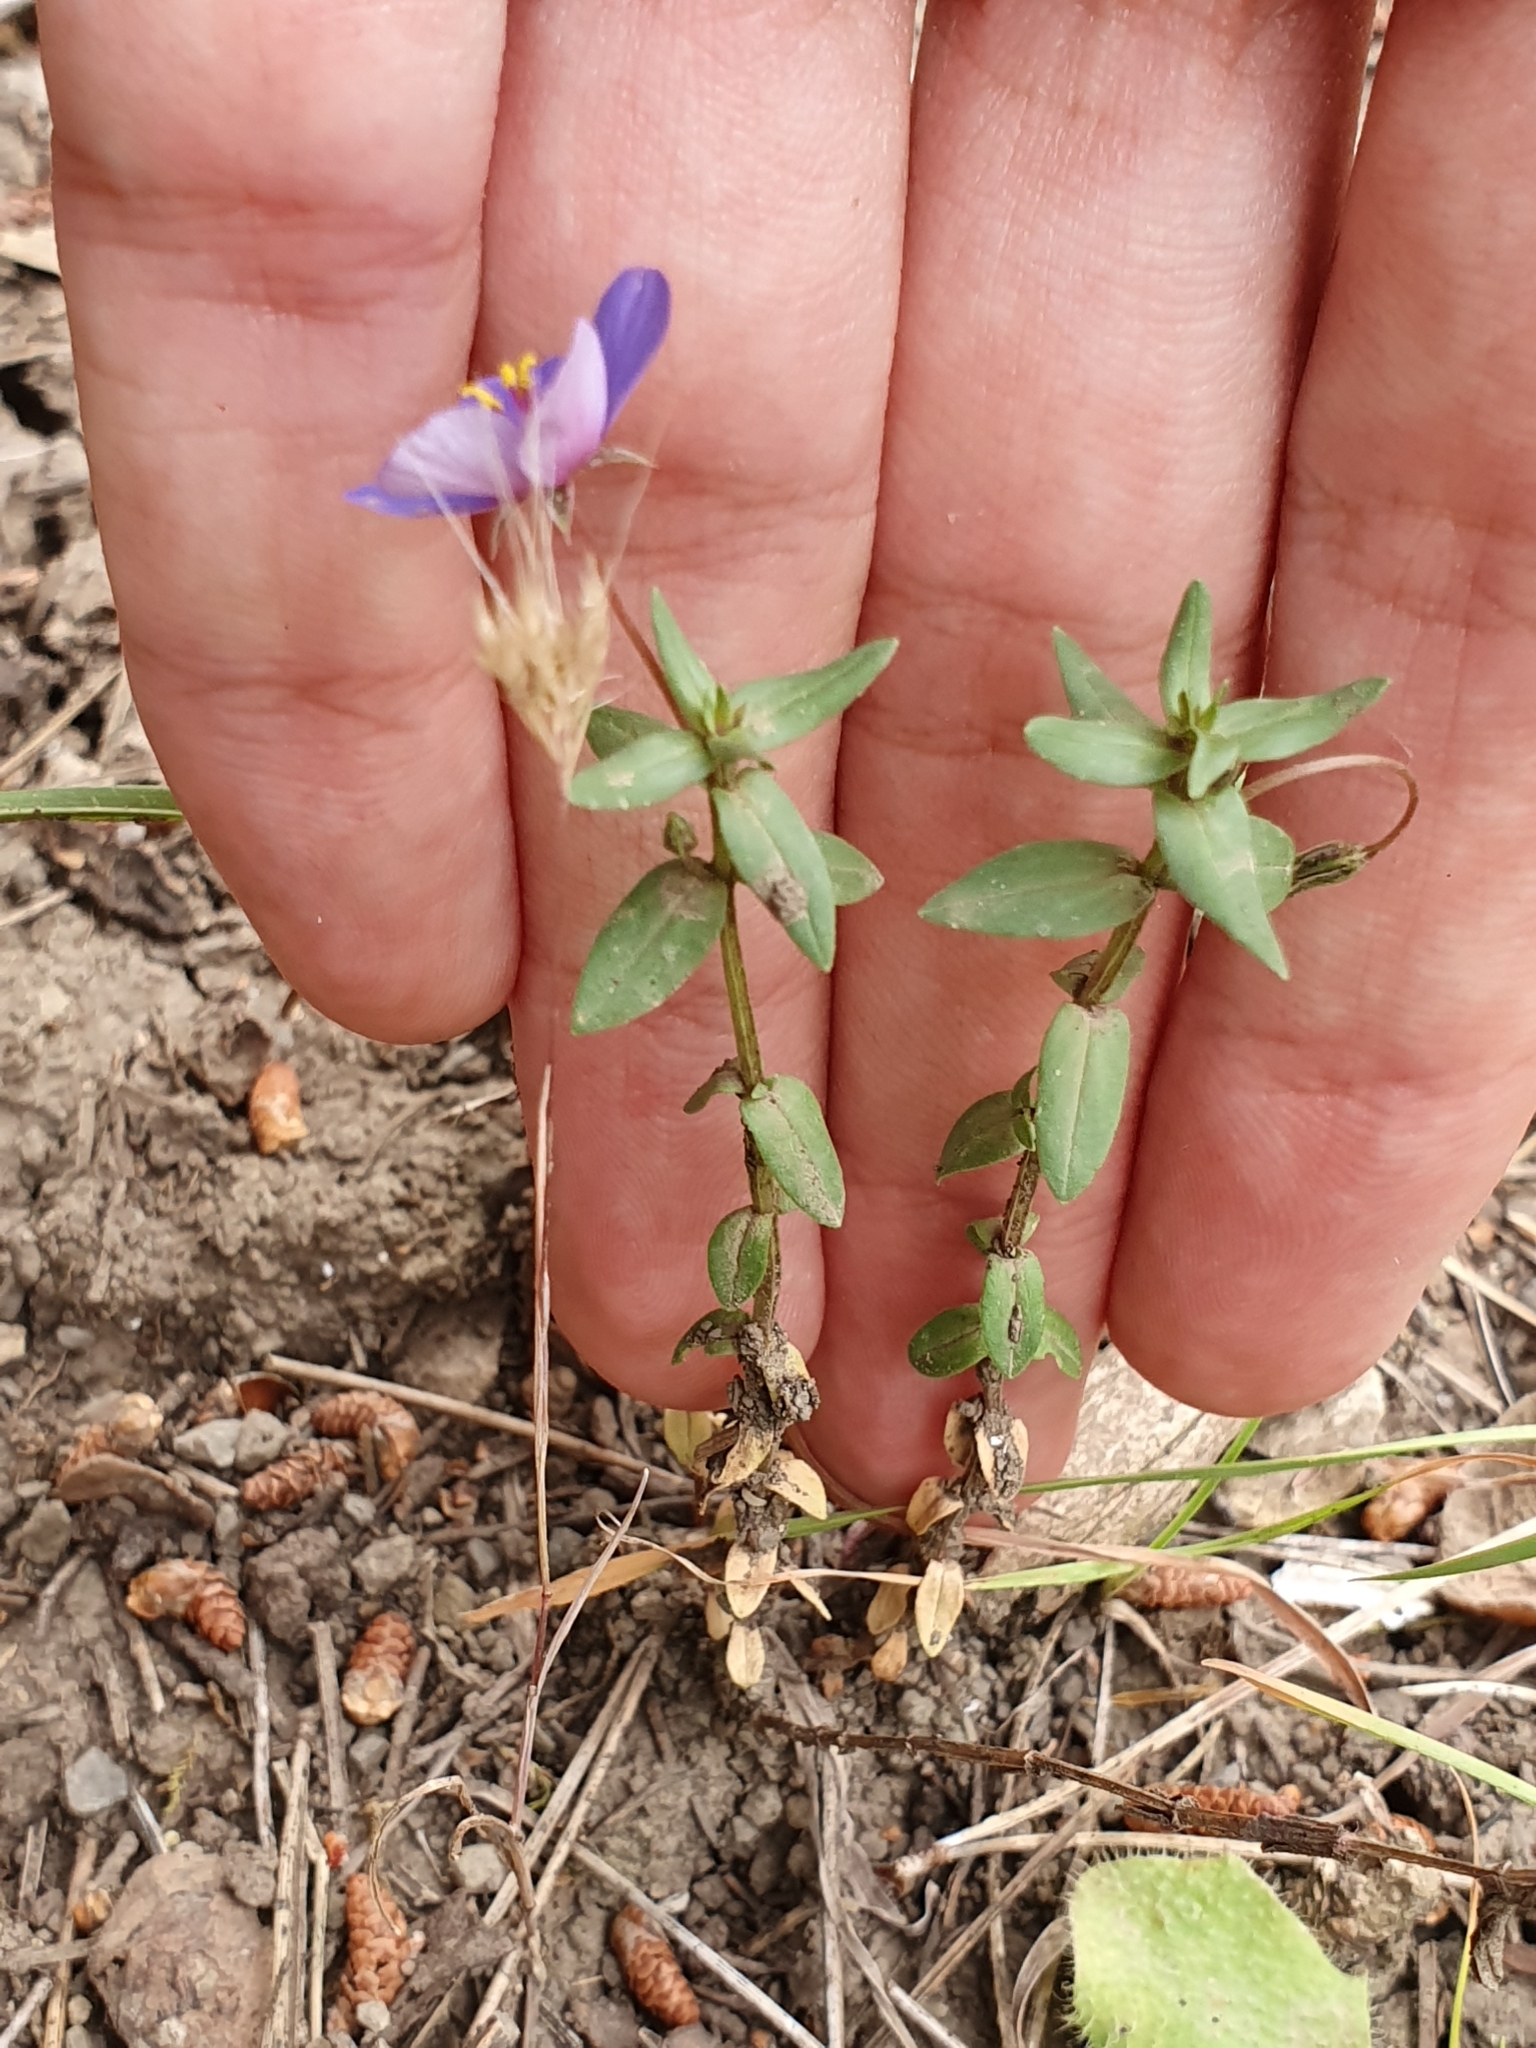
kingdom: Plantae
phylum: Tracheophyta
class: Magnoliopsida
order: Ericales
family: Primulaceae
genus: Lysimachia
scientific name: Lysimachia monelli
